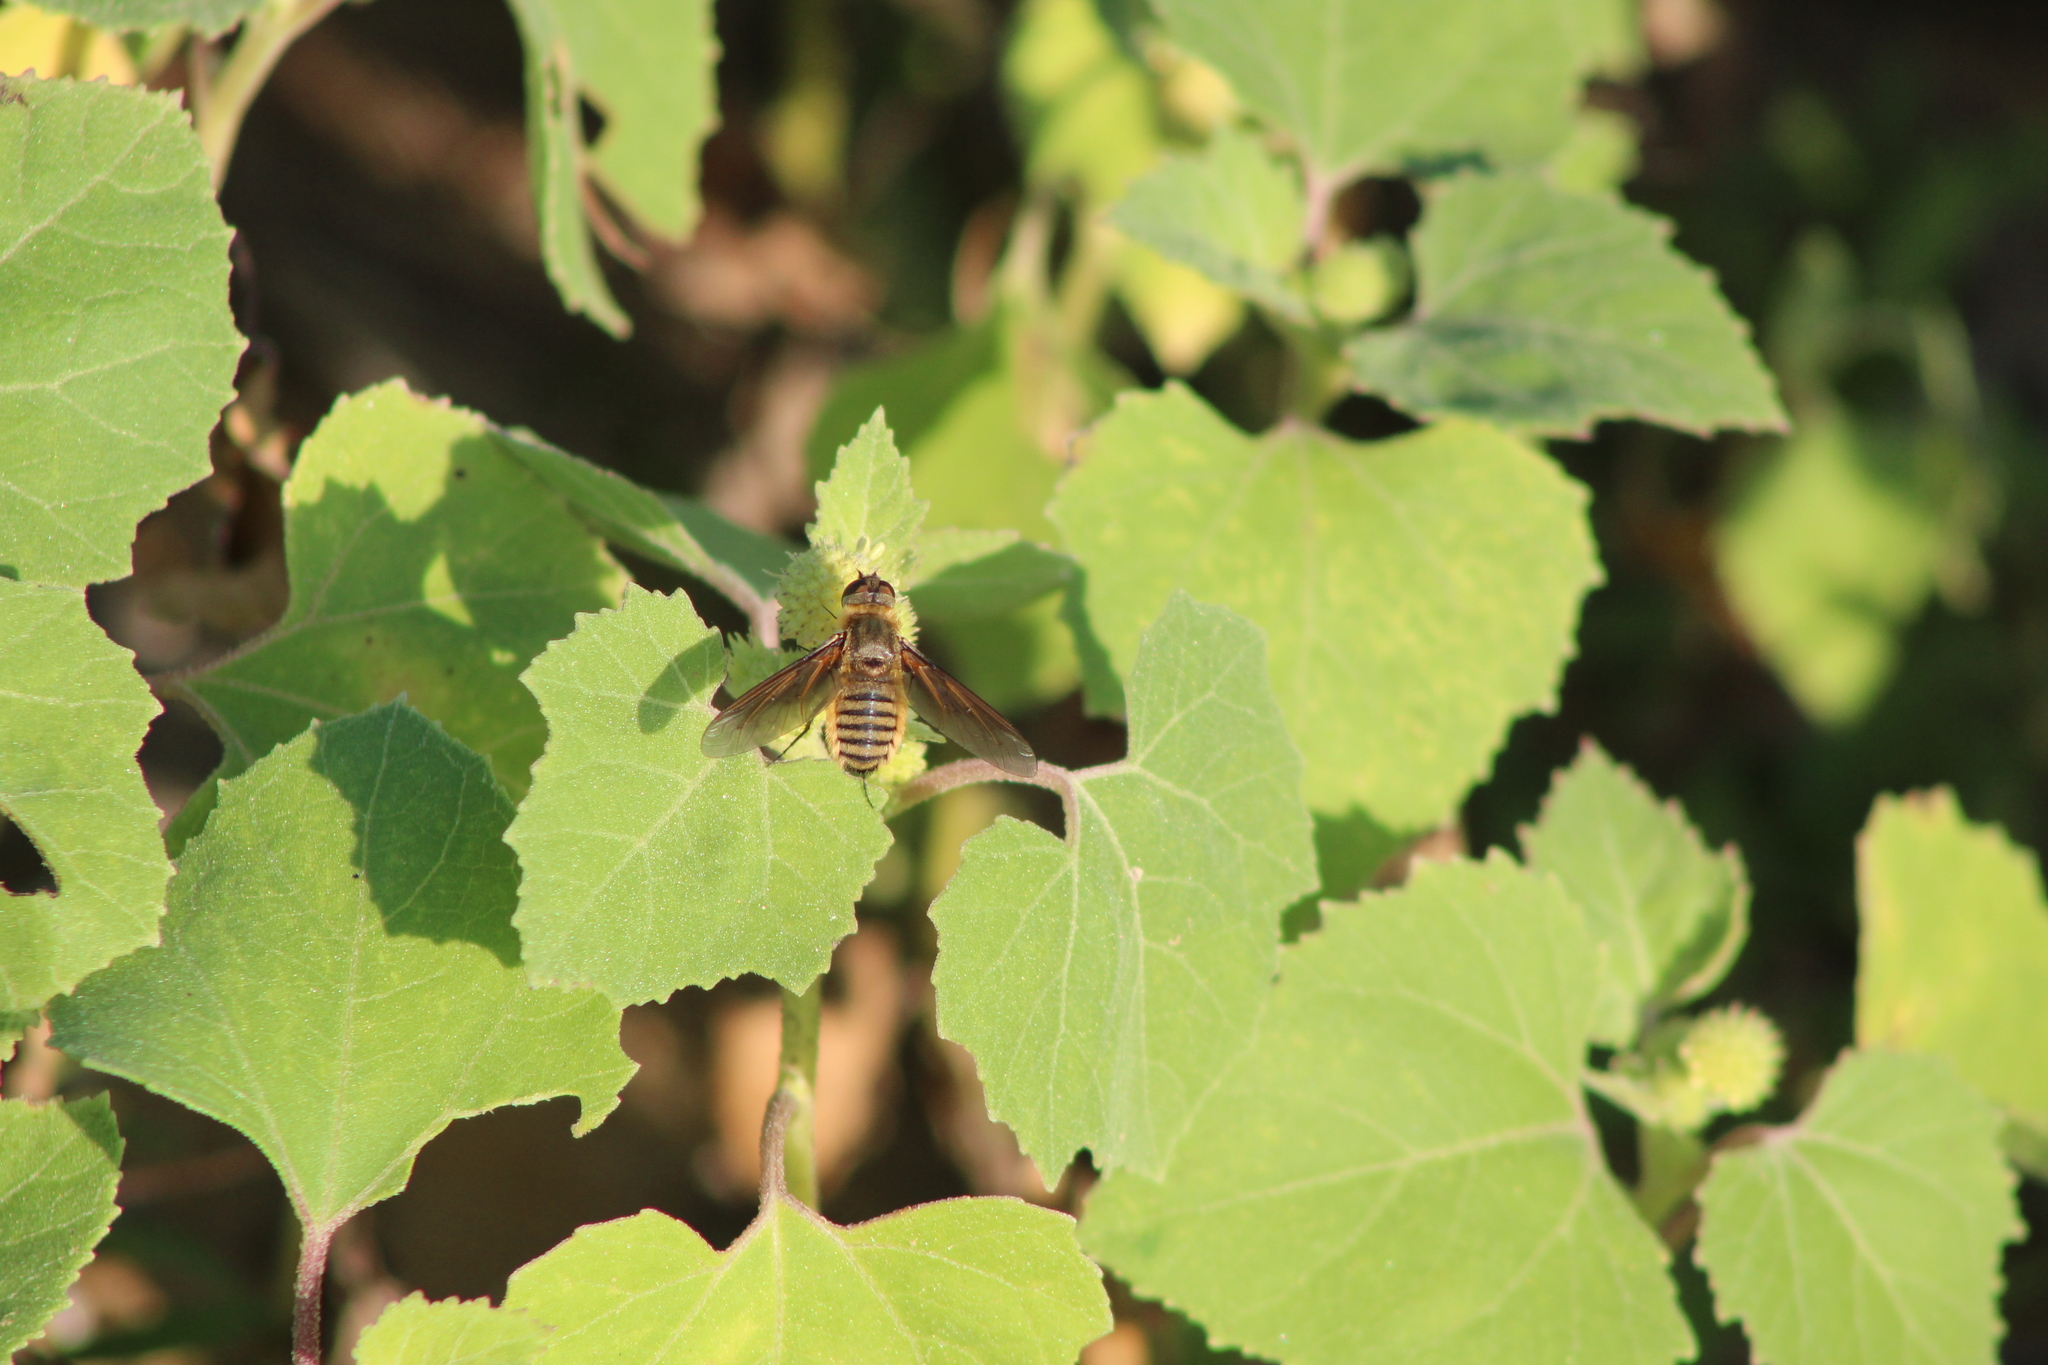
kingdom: Animalia
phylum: Arthropoda
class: Insecta
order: Diptera
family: Bombyliidae
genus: Poecilanthrax
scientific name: Poecilanthrax lucifer
